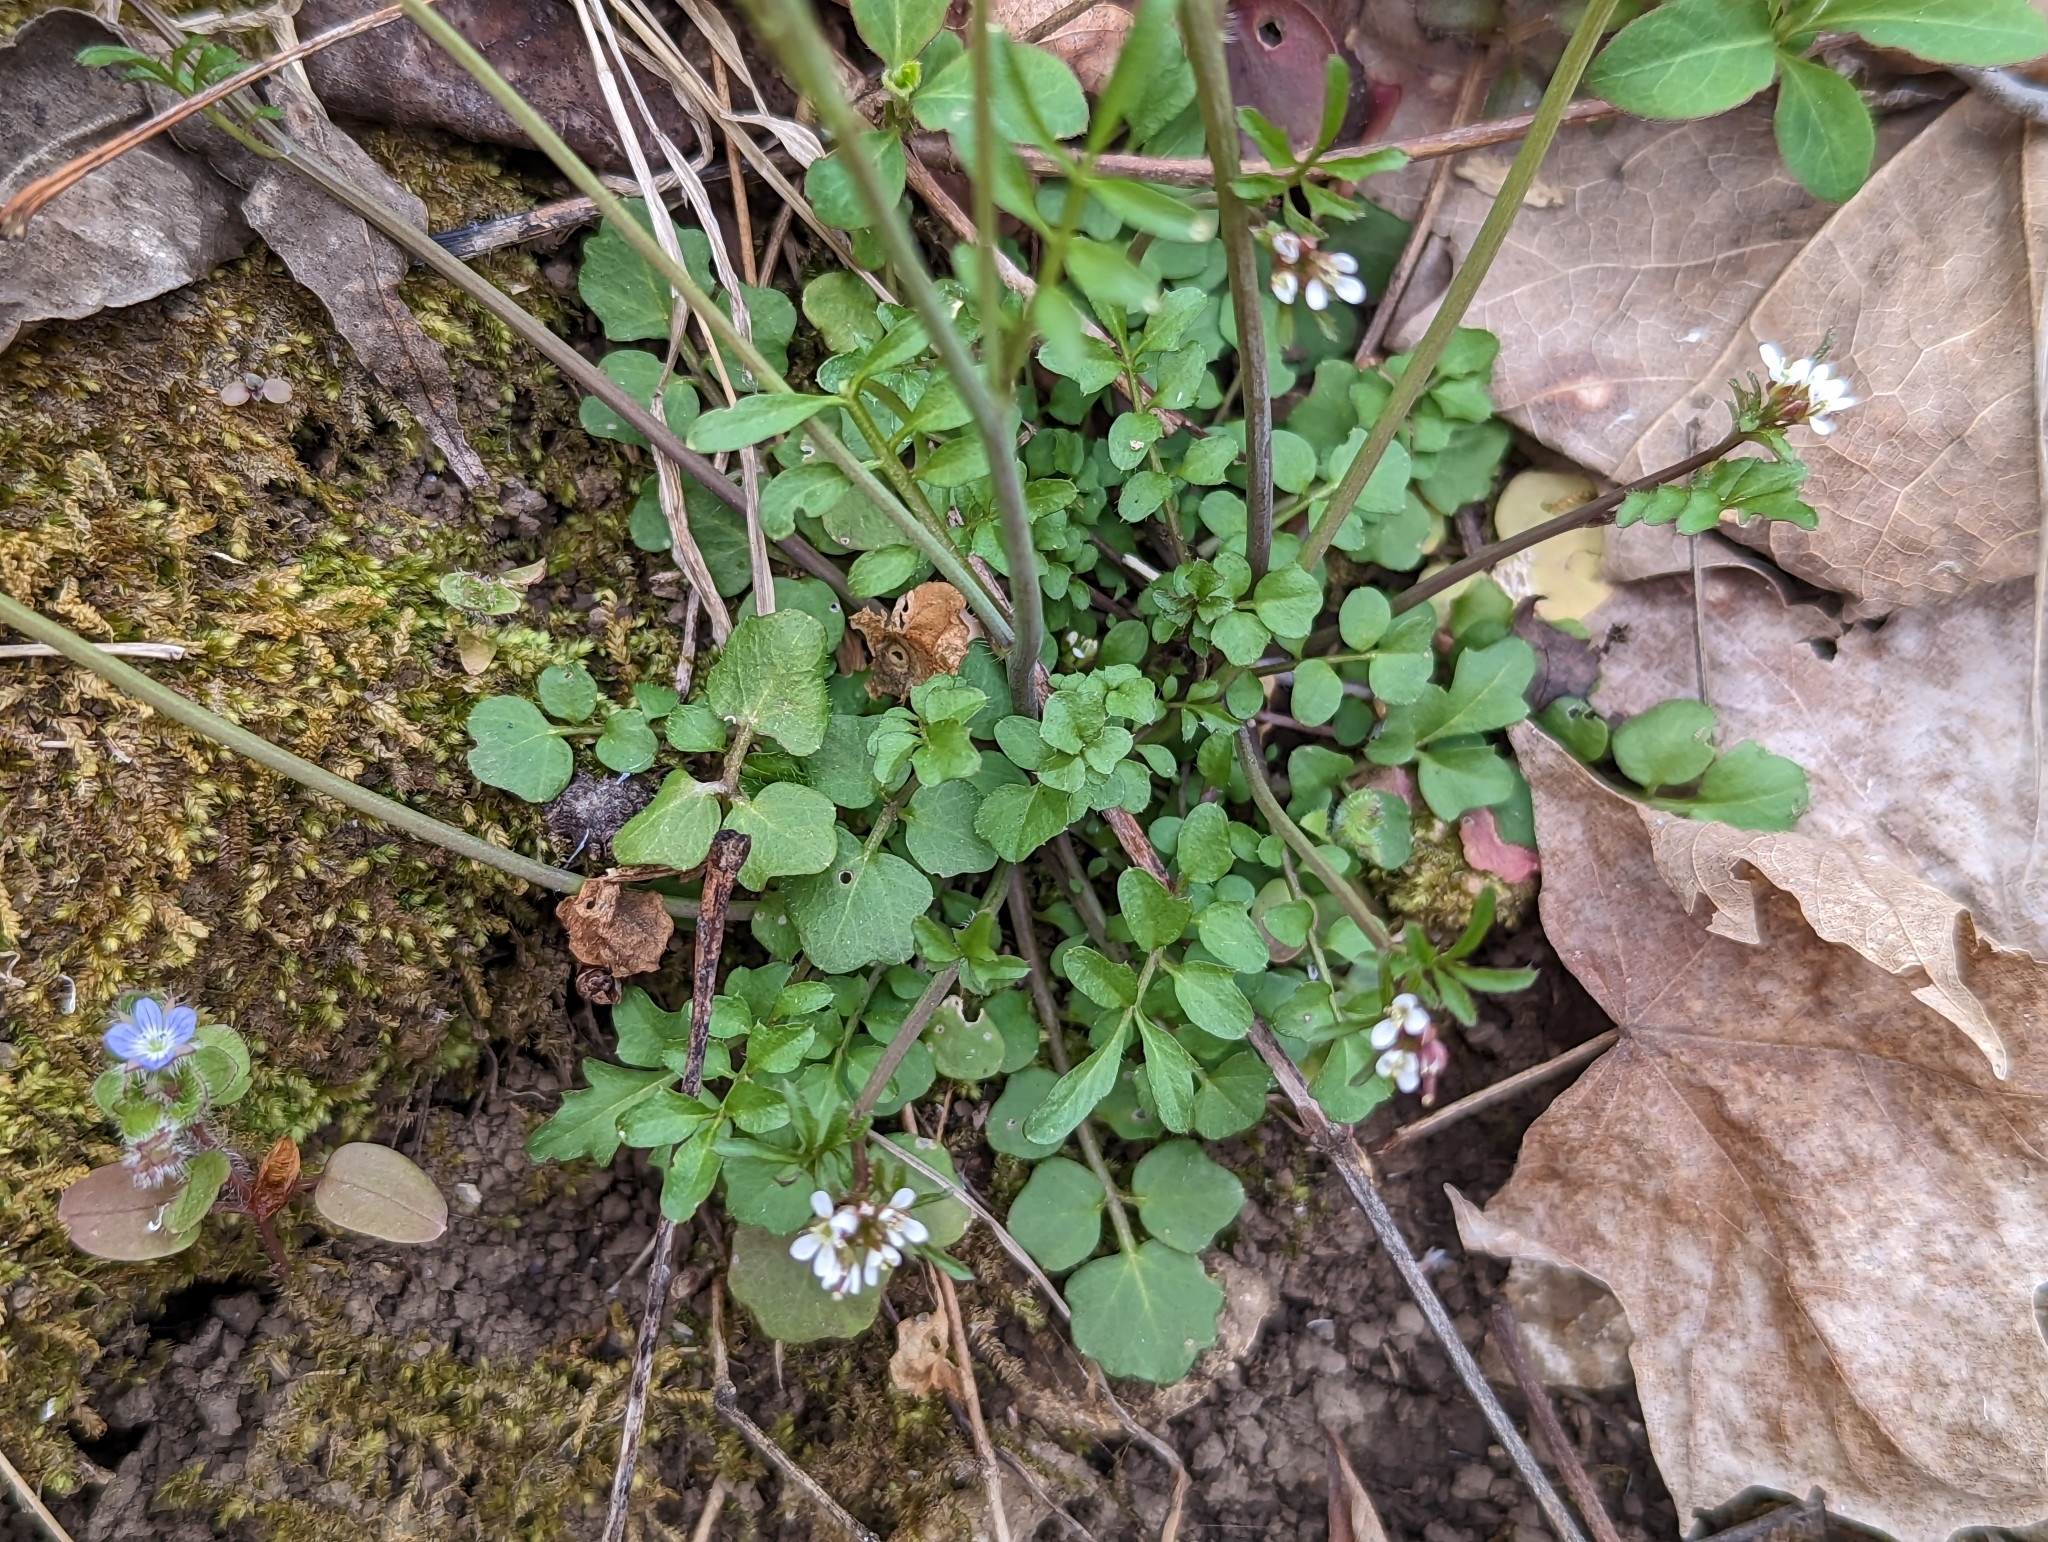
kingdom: Plantae
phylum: Tracheophyta
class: Magnoliopsida
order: Brassicales
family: Brassicaceae
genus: Cardamine
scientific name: Cardamine hirsuta
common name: Hairy bittercress
